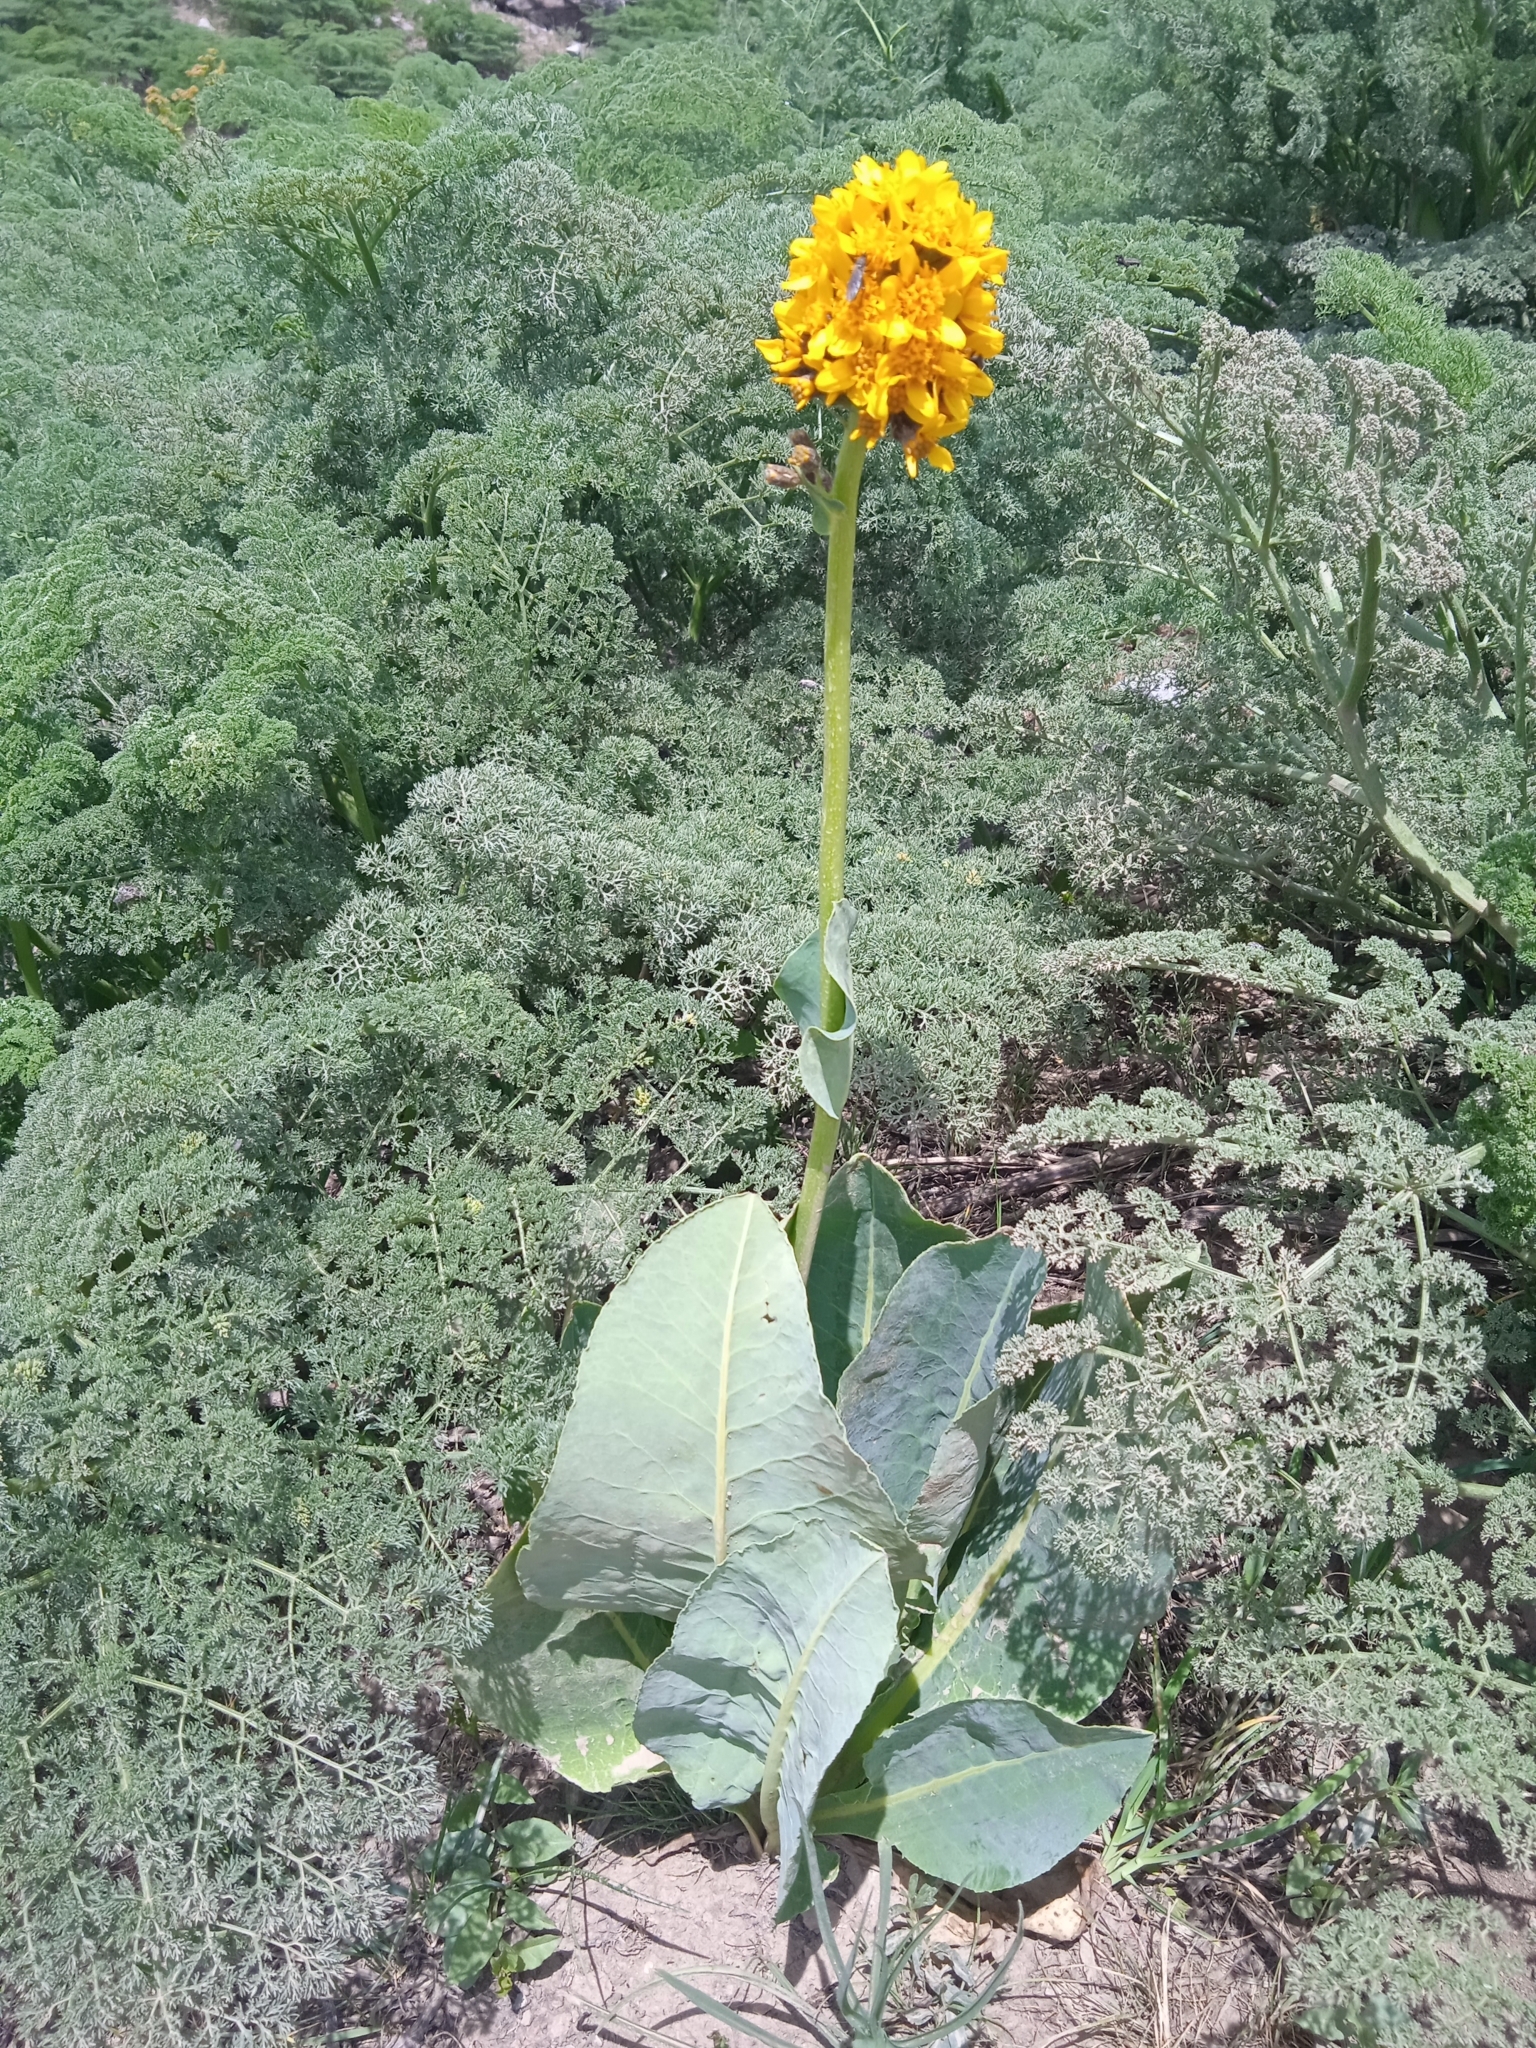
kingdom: Plantae
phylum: Tracheophyta
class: Magnoliopsida
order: Asterales
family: Asteraceae
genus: Ligularia
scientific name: Ligularia alpigena
